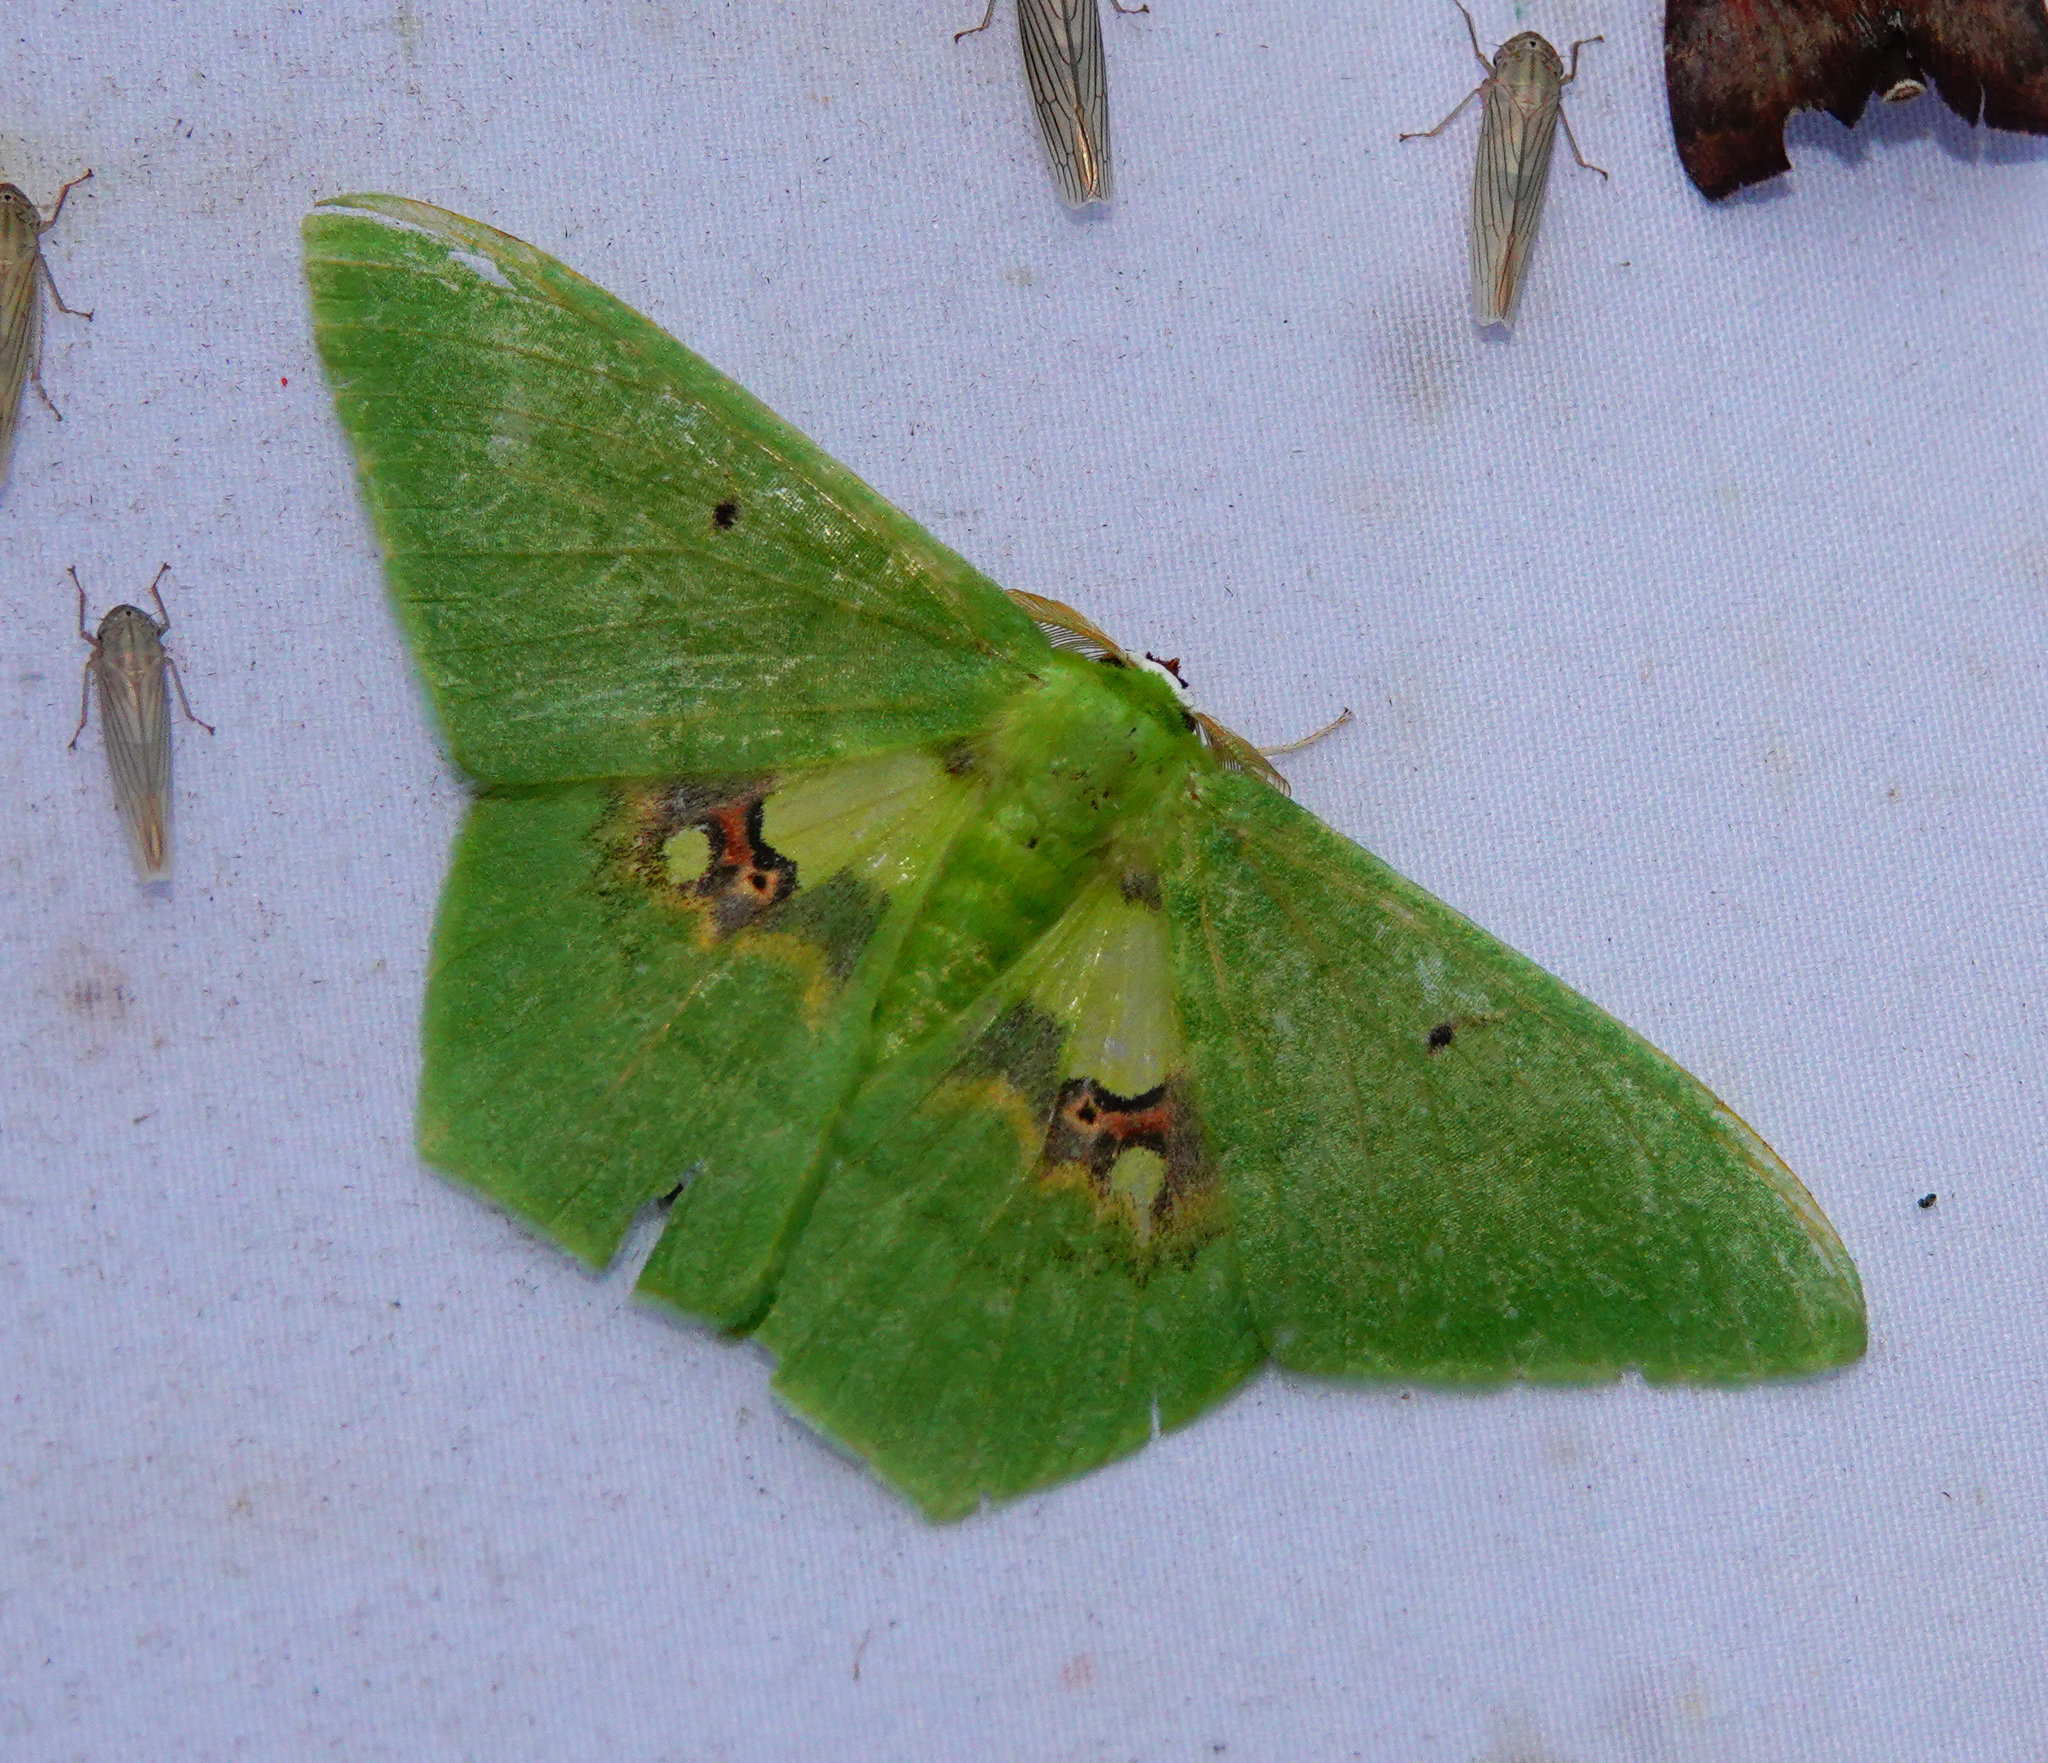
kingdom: Animalia
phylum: Arthropoda
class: Insecta
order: Lepidoptera
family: Geometridae
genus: Aporandria
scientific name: Aporandria specularia
